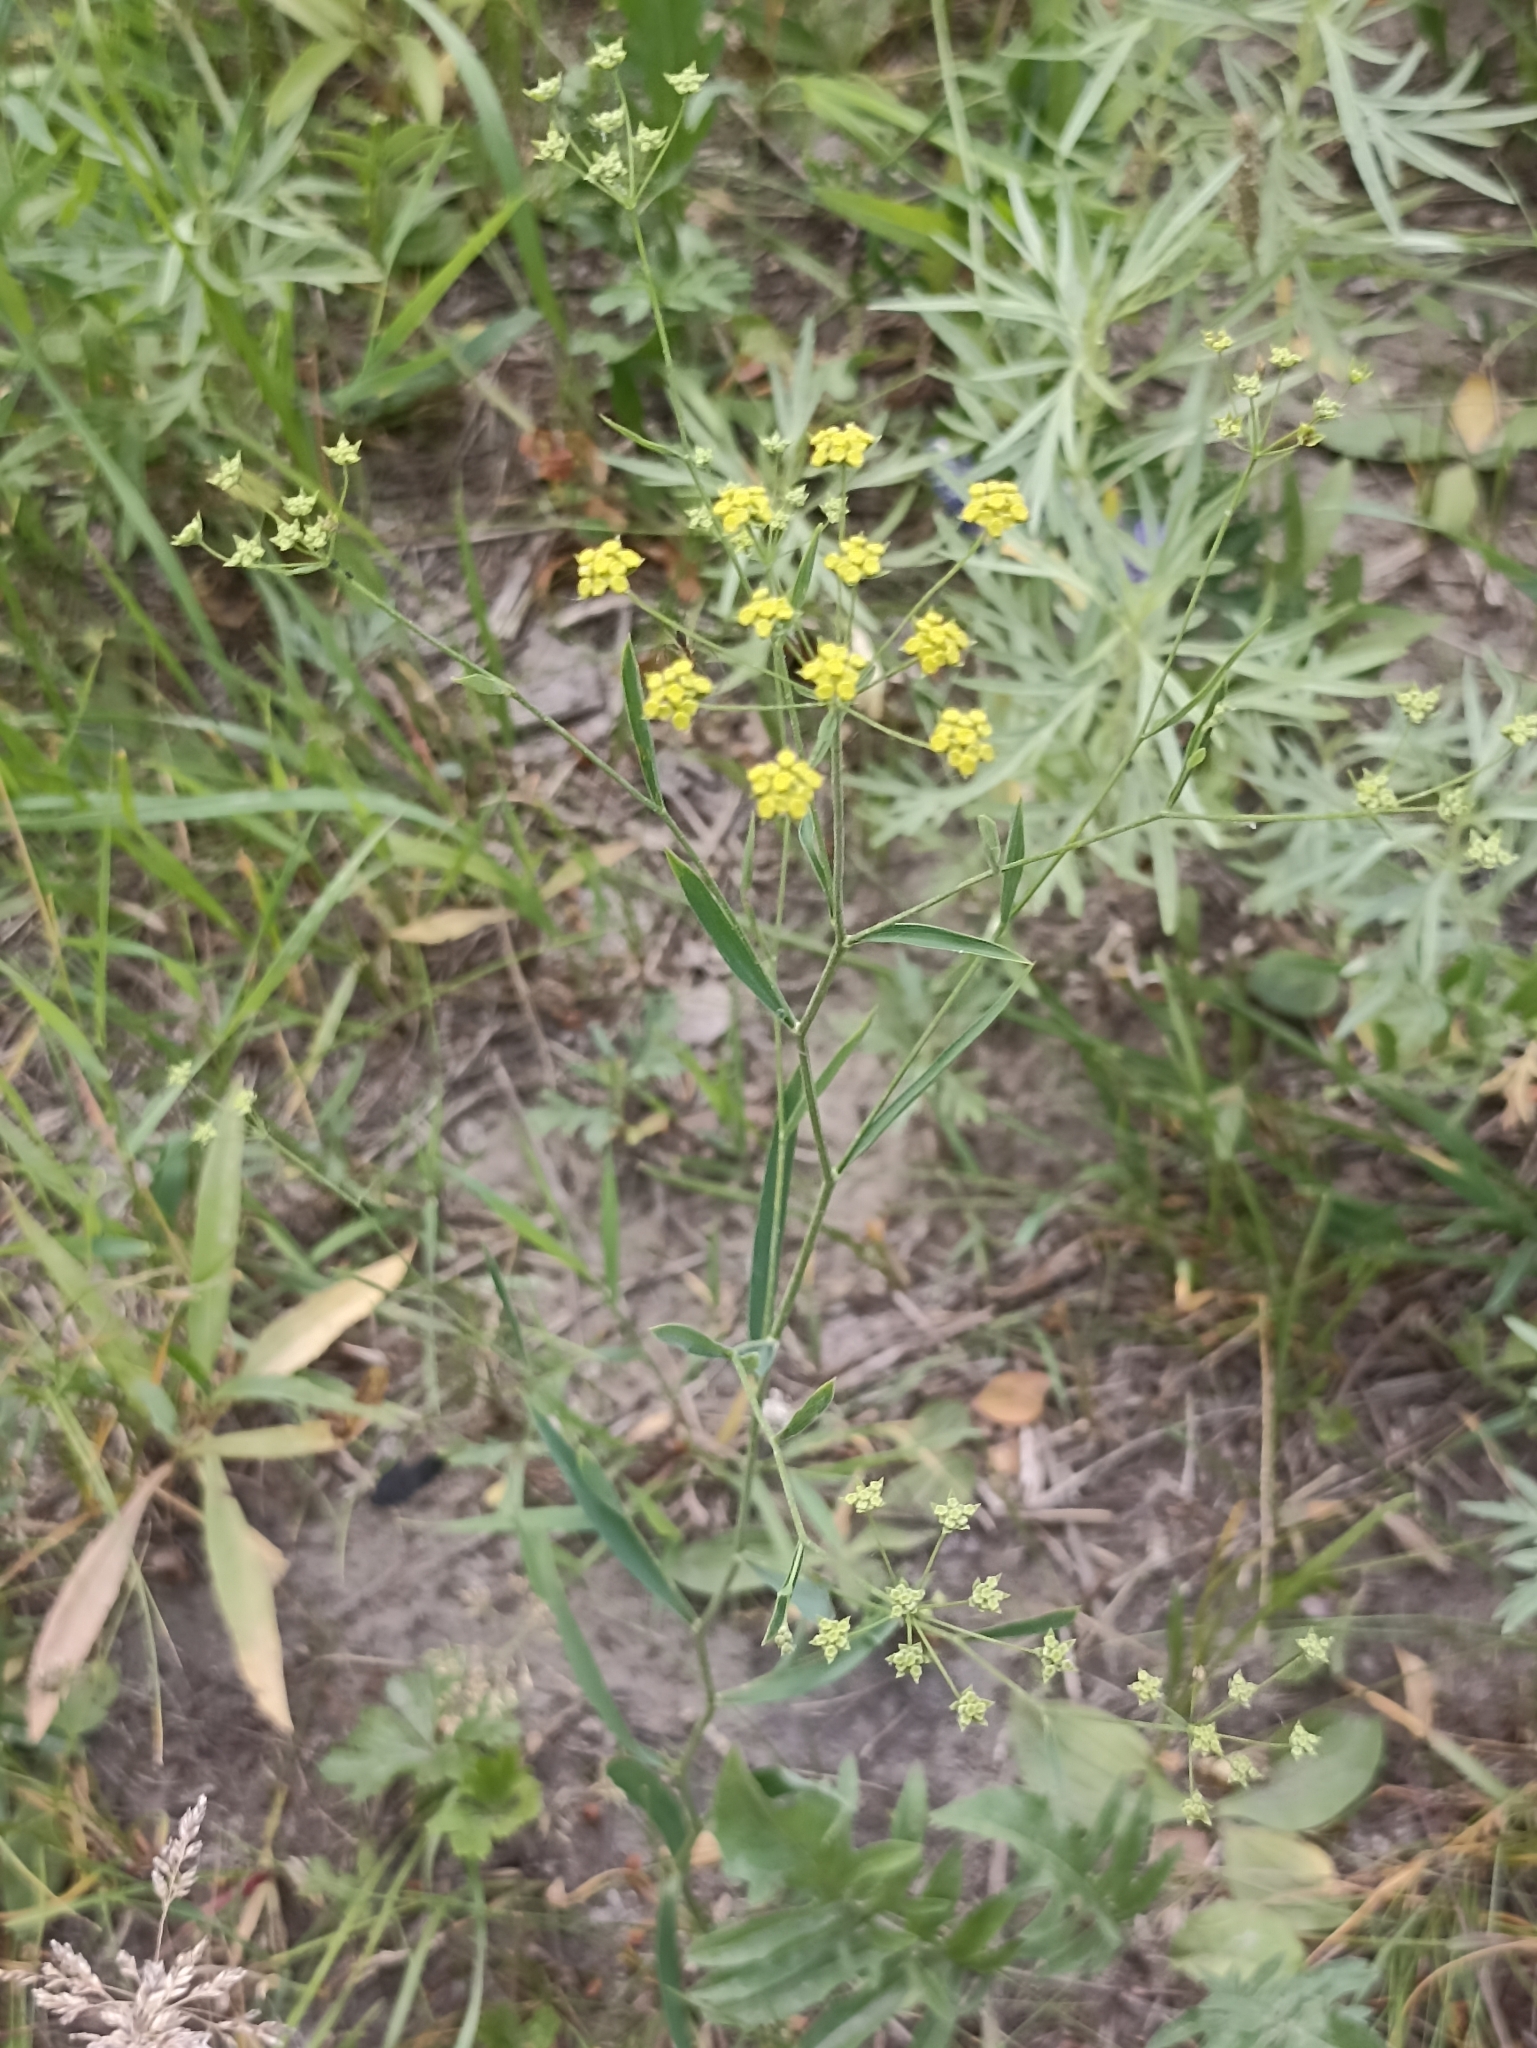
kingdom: Plantae
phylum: Tracheophyta
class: Magnoliopsida
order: Apiales
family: Apiaceae
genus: Bupleurum
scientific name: Bupleurum scorzonerifolium
